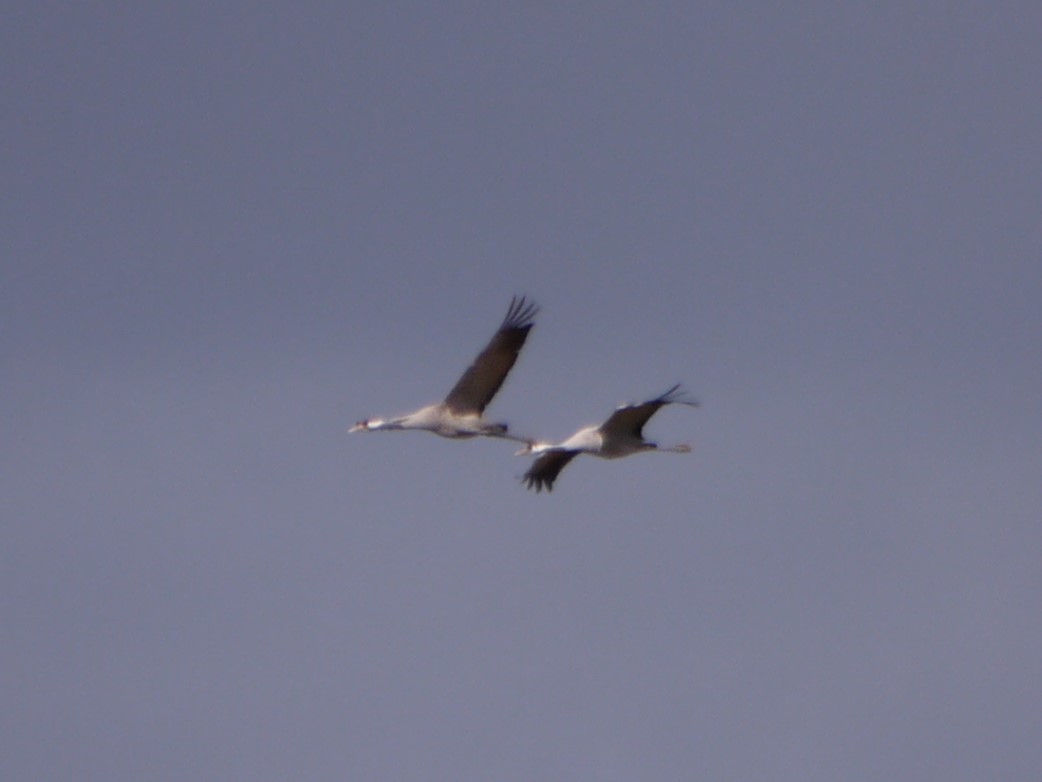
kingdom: Animalia
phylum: Chordata
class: Aves
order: Gruiformes
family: Gruidae
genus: Grus
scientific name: Grus grus
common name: Common crane
